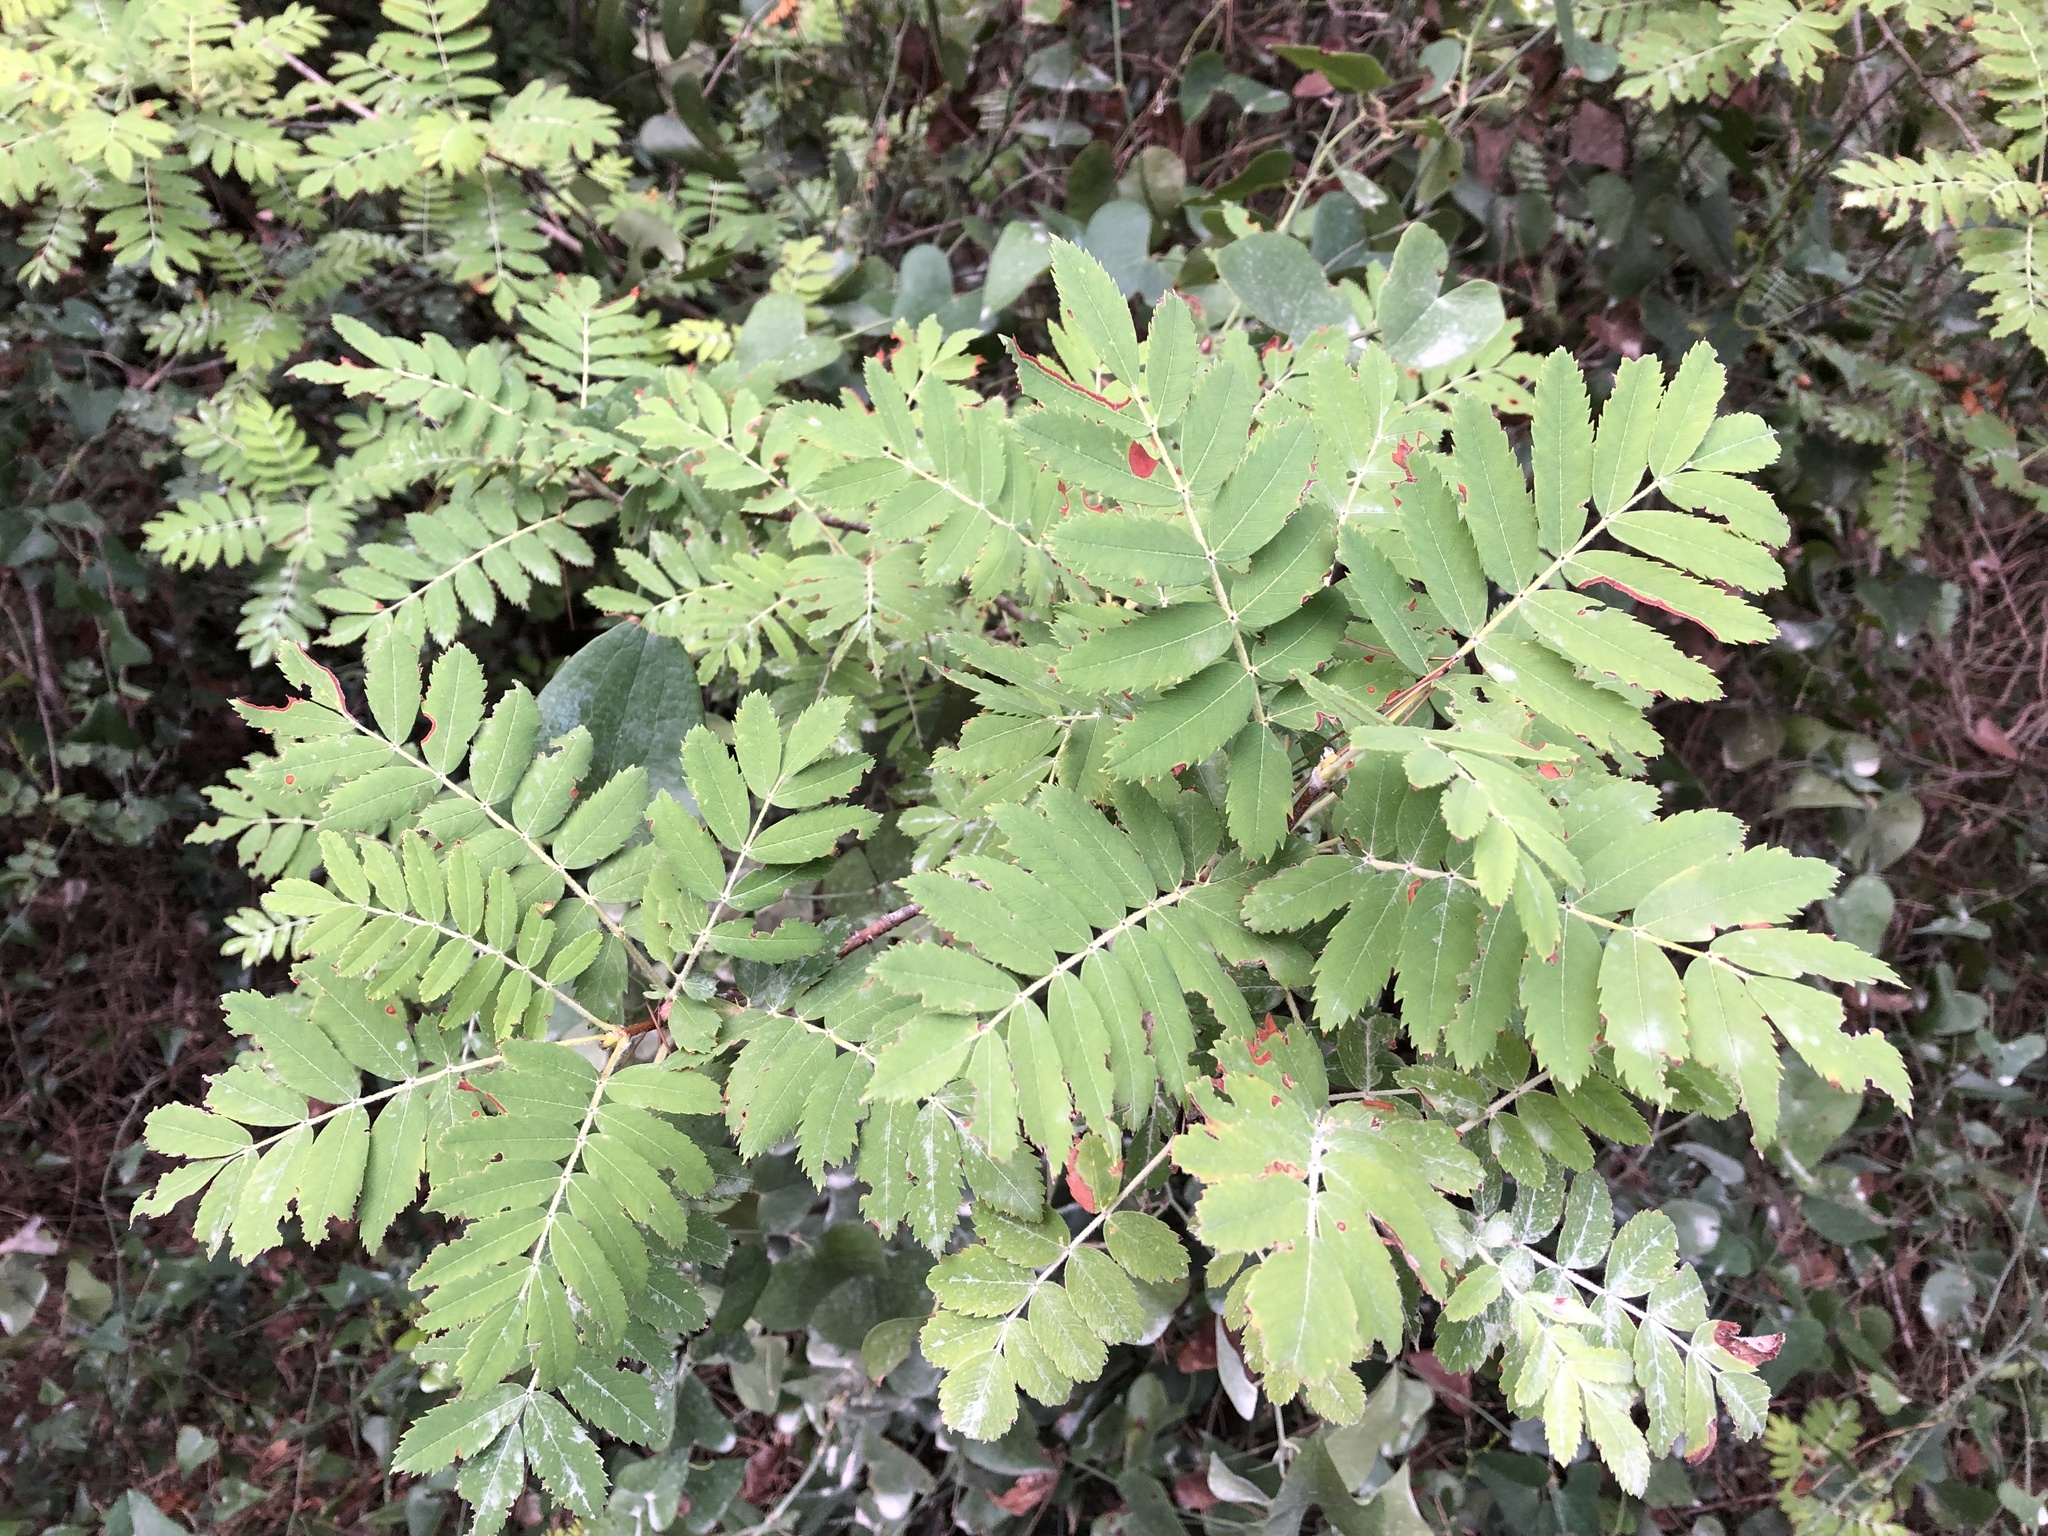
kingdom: Plantae
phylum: Tracheophyta
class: Magnoliopsida
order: Rosales
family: Rosaceae
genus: Cormus
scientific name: Cormus domestica
